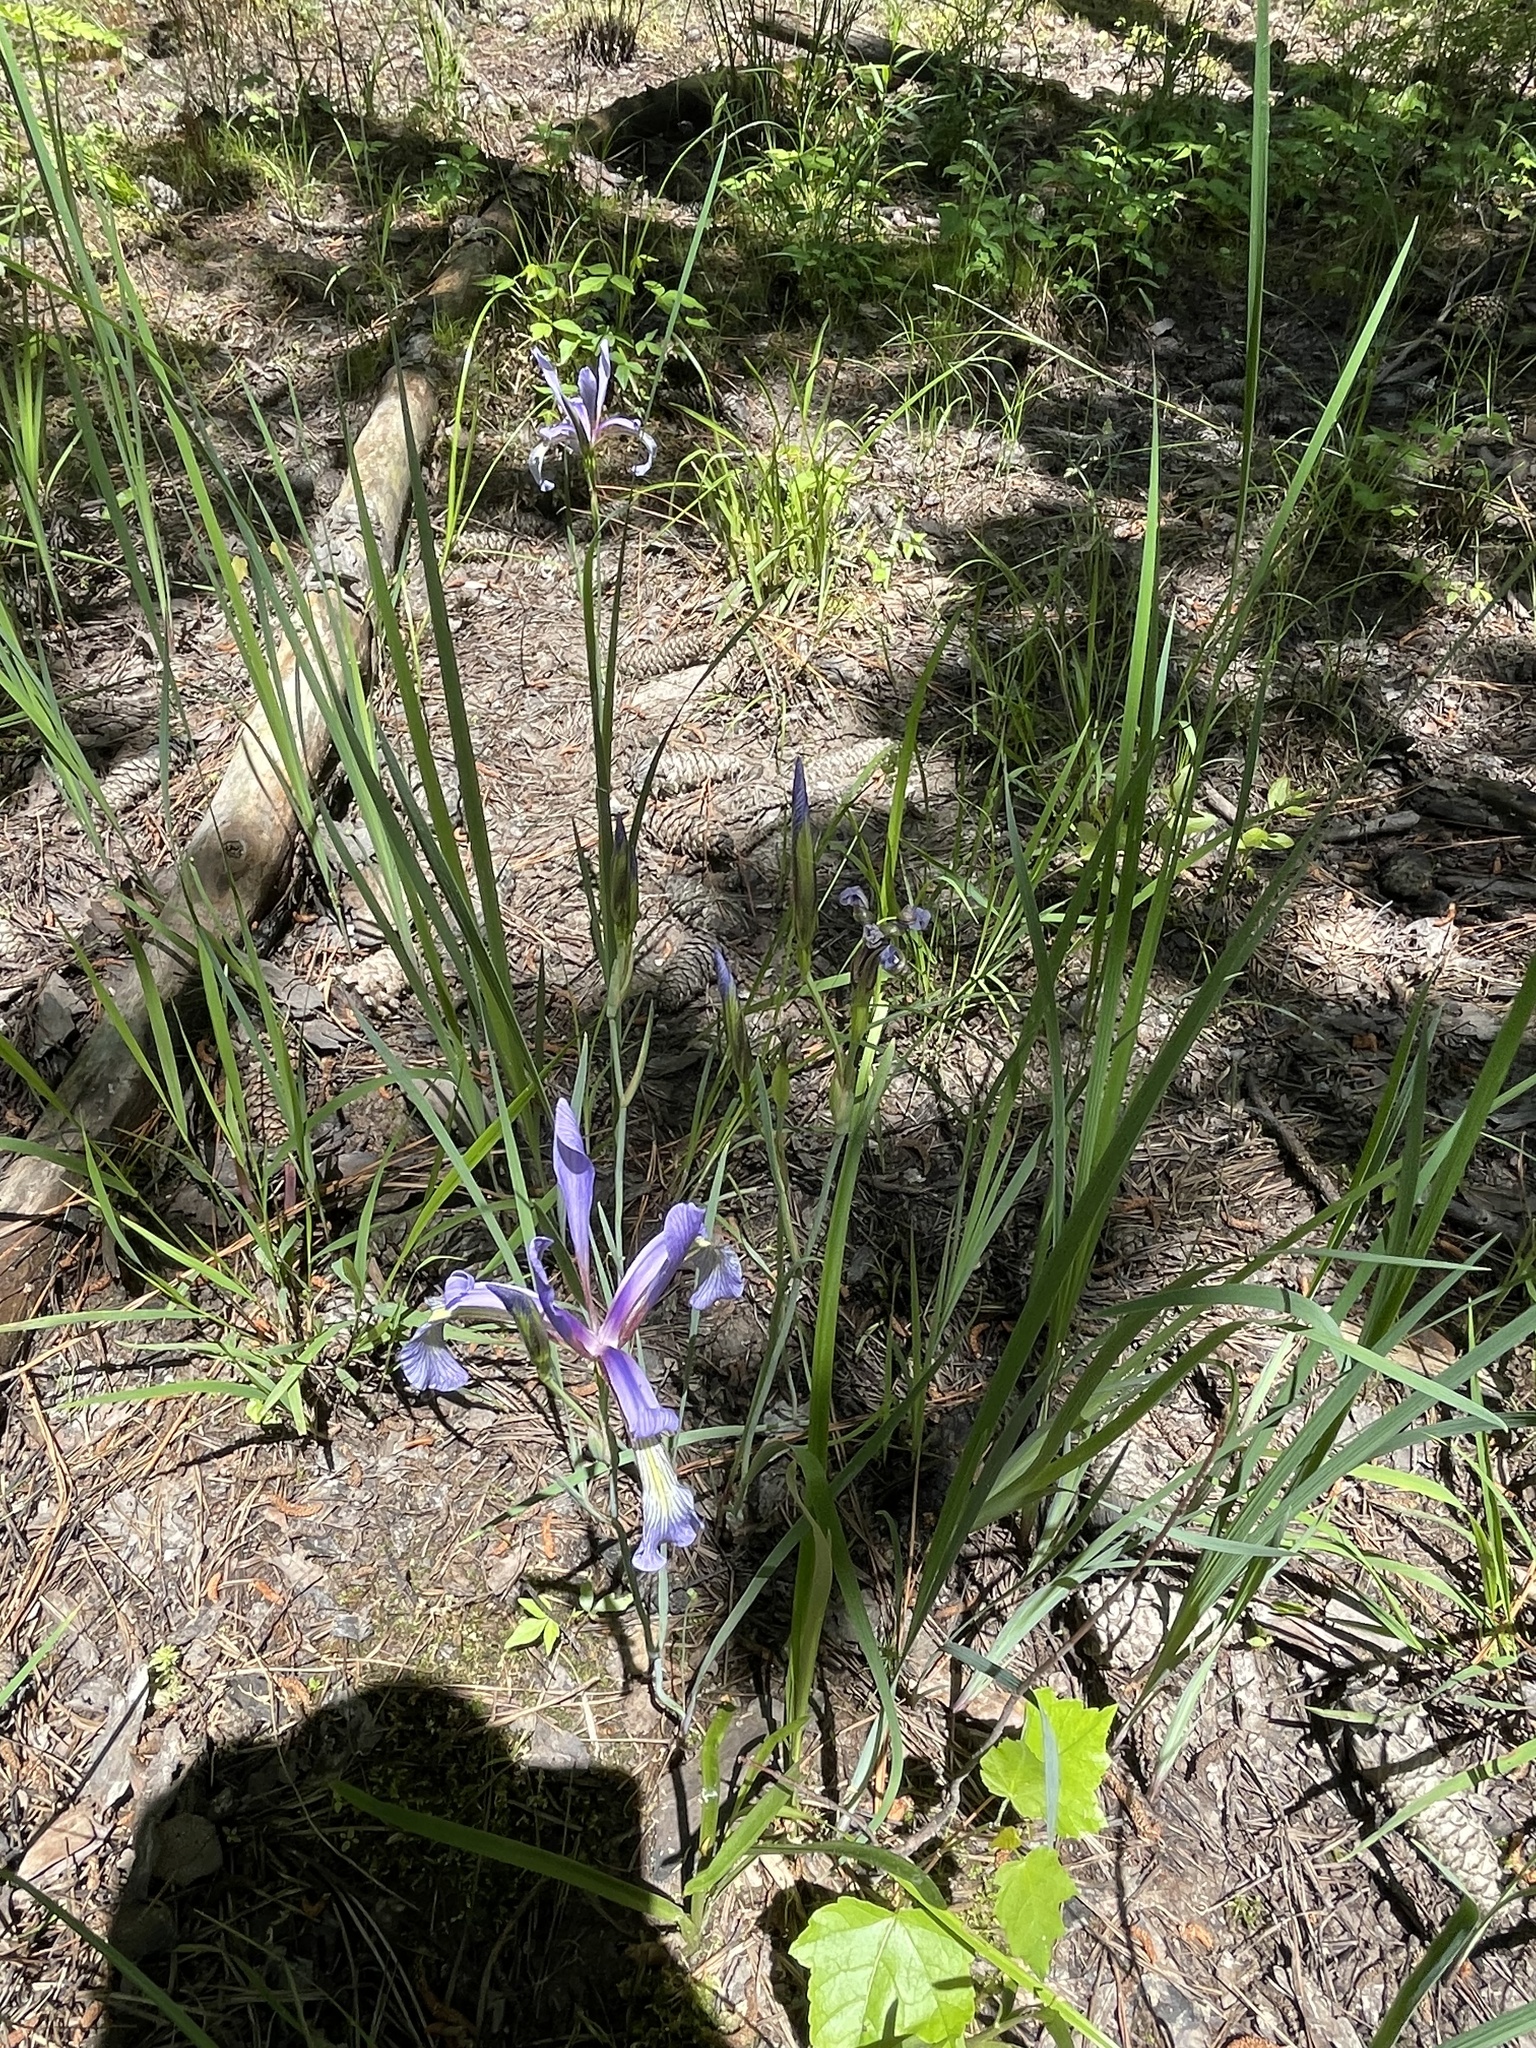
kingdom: Plantae
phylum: Tracheophyta
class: Liliopsida
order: Asparagales
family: Iridaceae
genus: Iris
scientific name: Iris prismatica
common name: Slender blue flag
